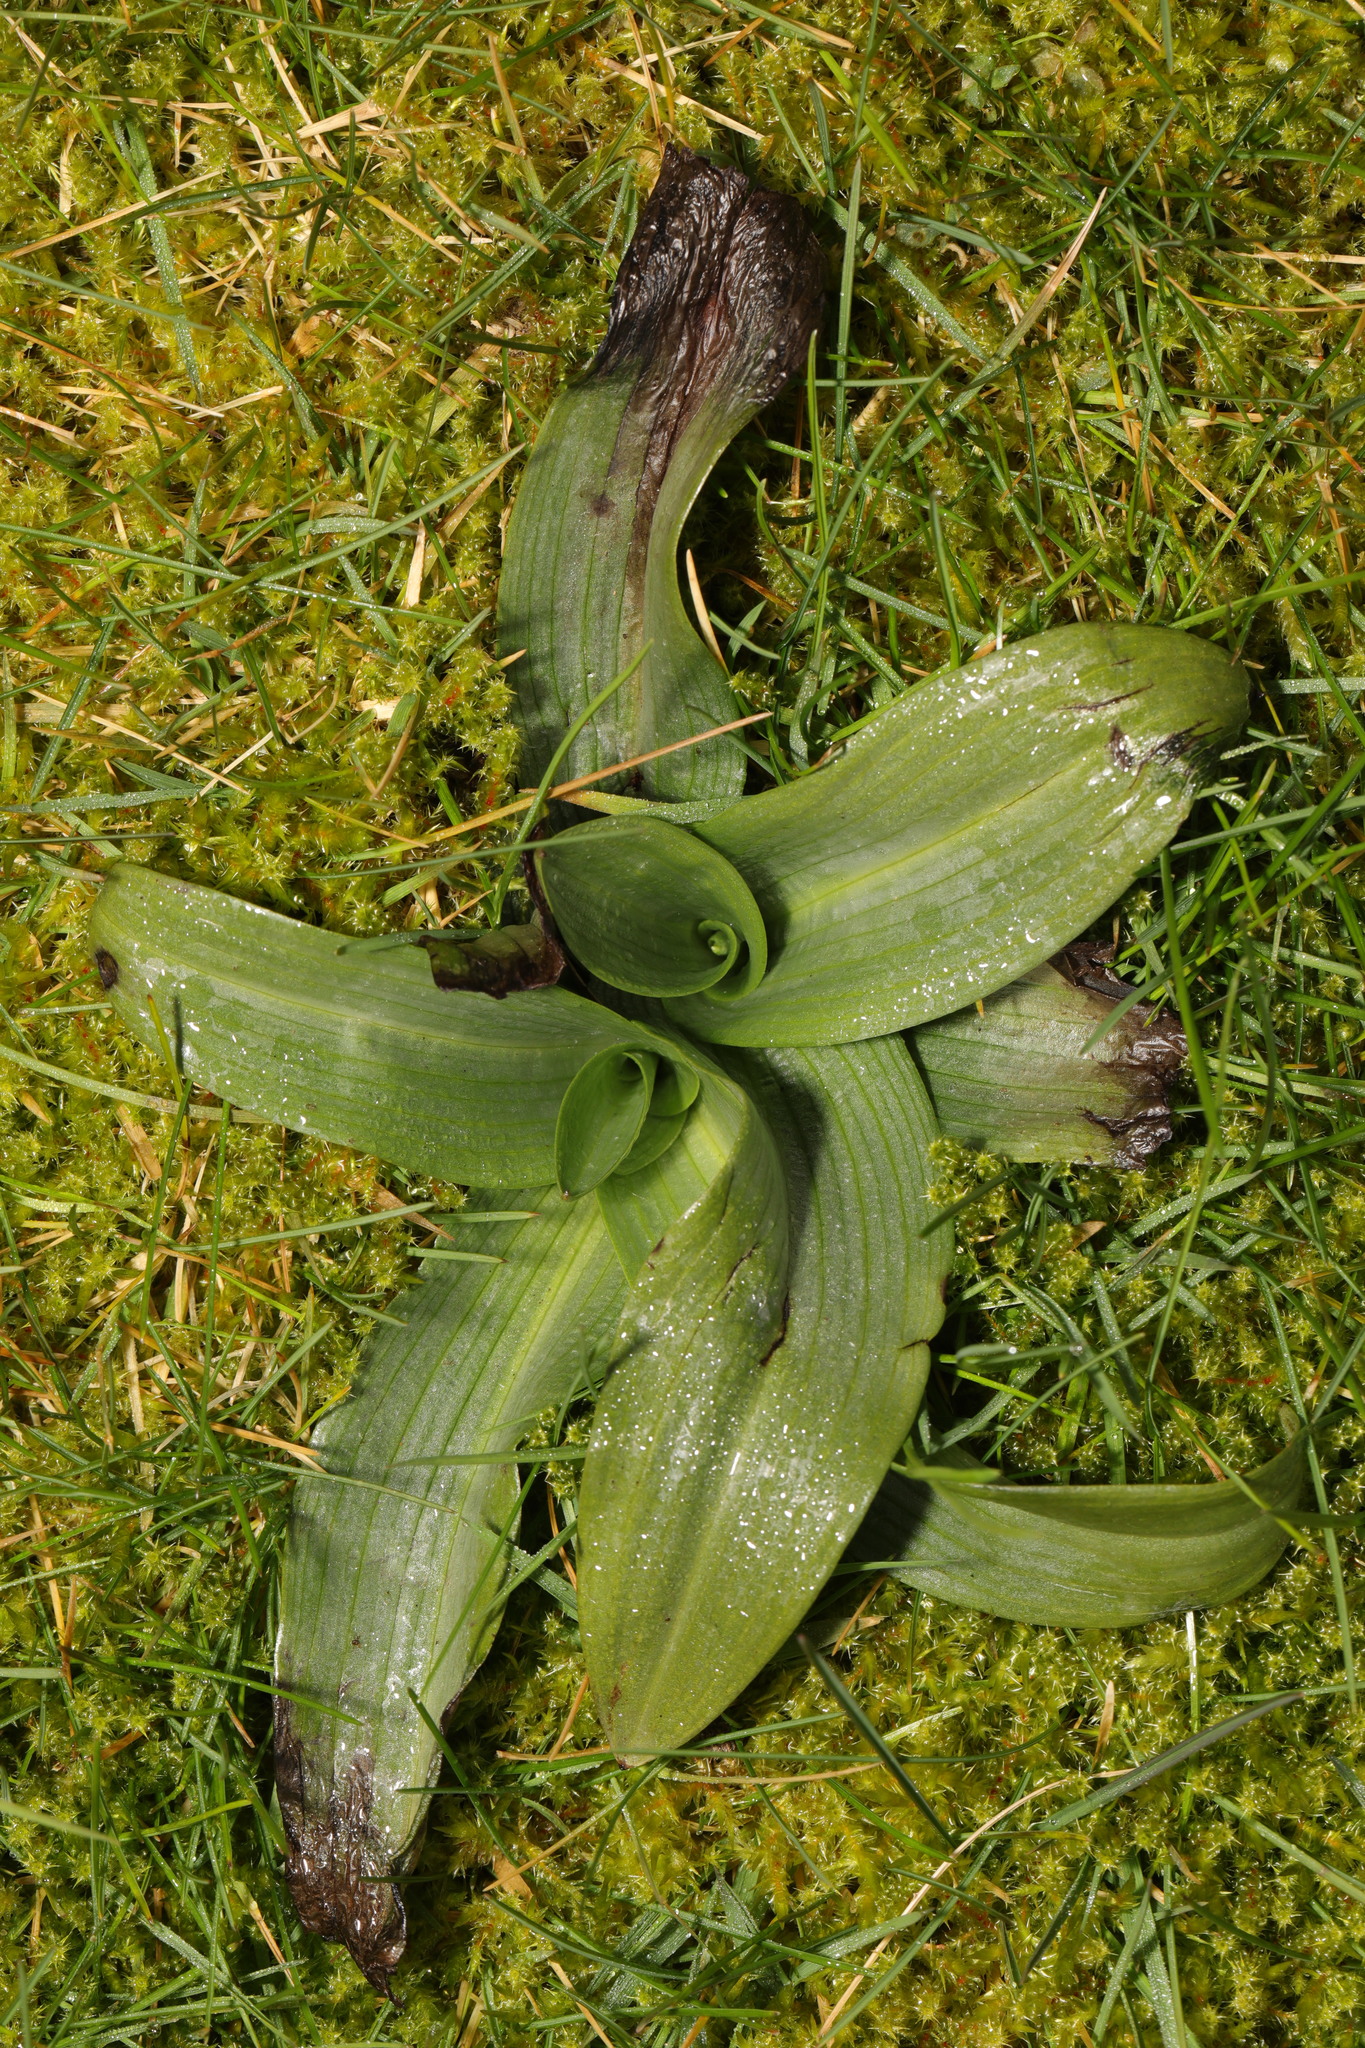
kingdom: Plantae
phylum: Tracheophyta
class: Liliopsida
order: Asparagales
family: Orchidaceae
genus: Ophrys
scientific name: Ophrys apifera
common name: Bee orchid
